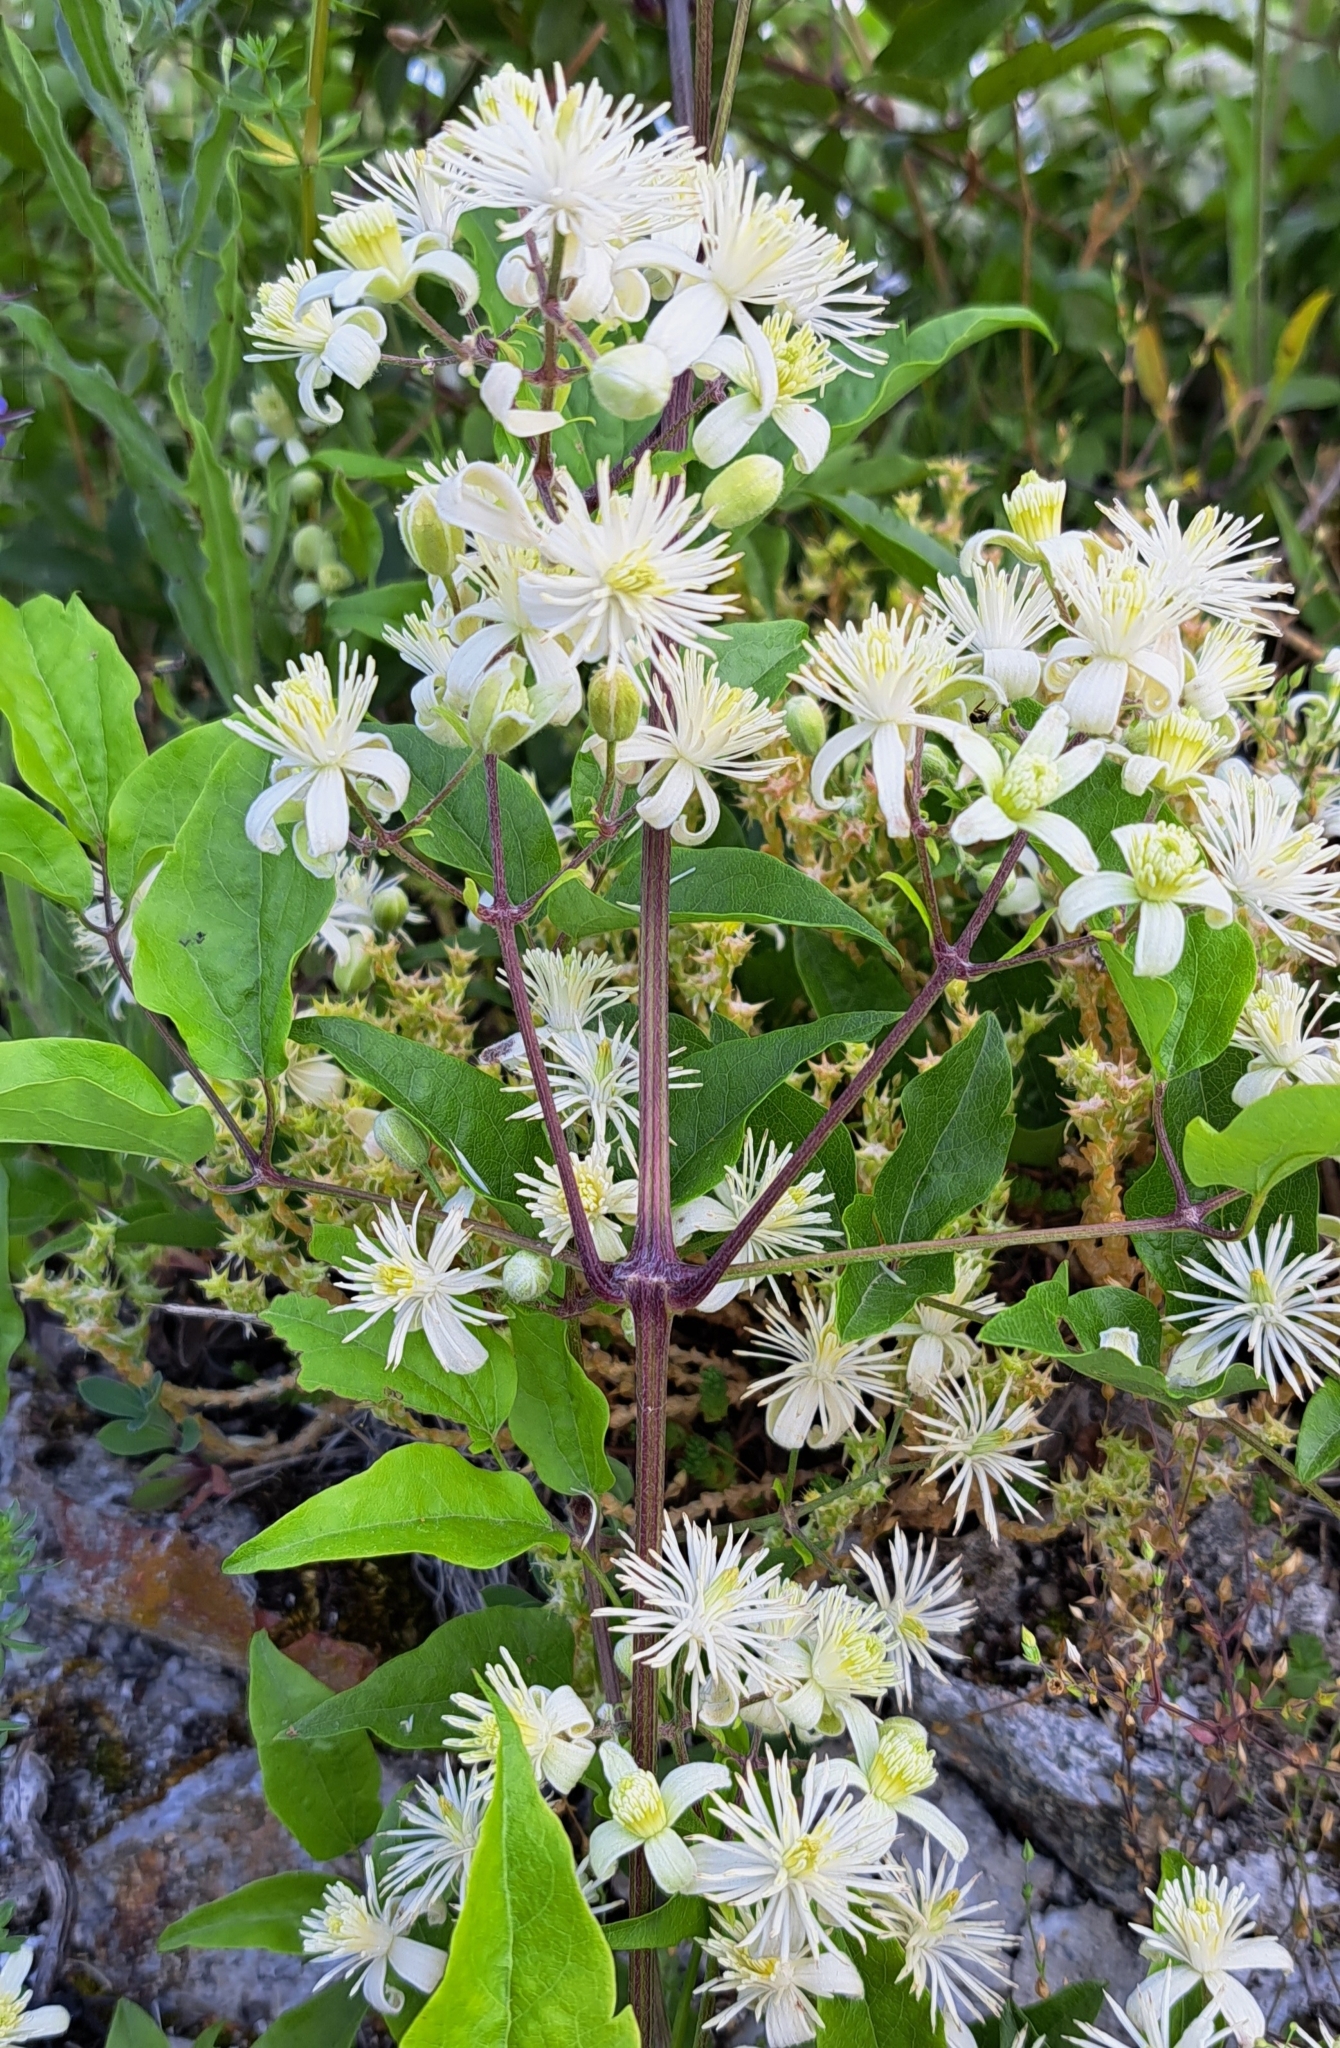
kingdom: Plantae
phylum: Tracheophyta
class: Magnoliopsida
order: Ranunculales
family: Ranunculaceae
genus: Clematis
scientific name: Clematis vitalba
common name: Evergreen clematis
